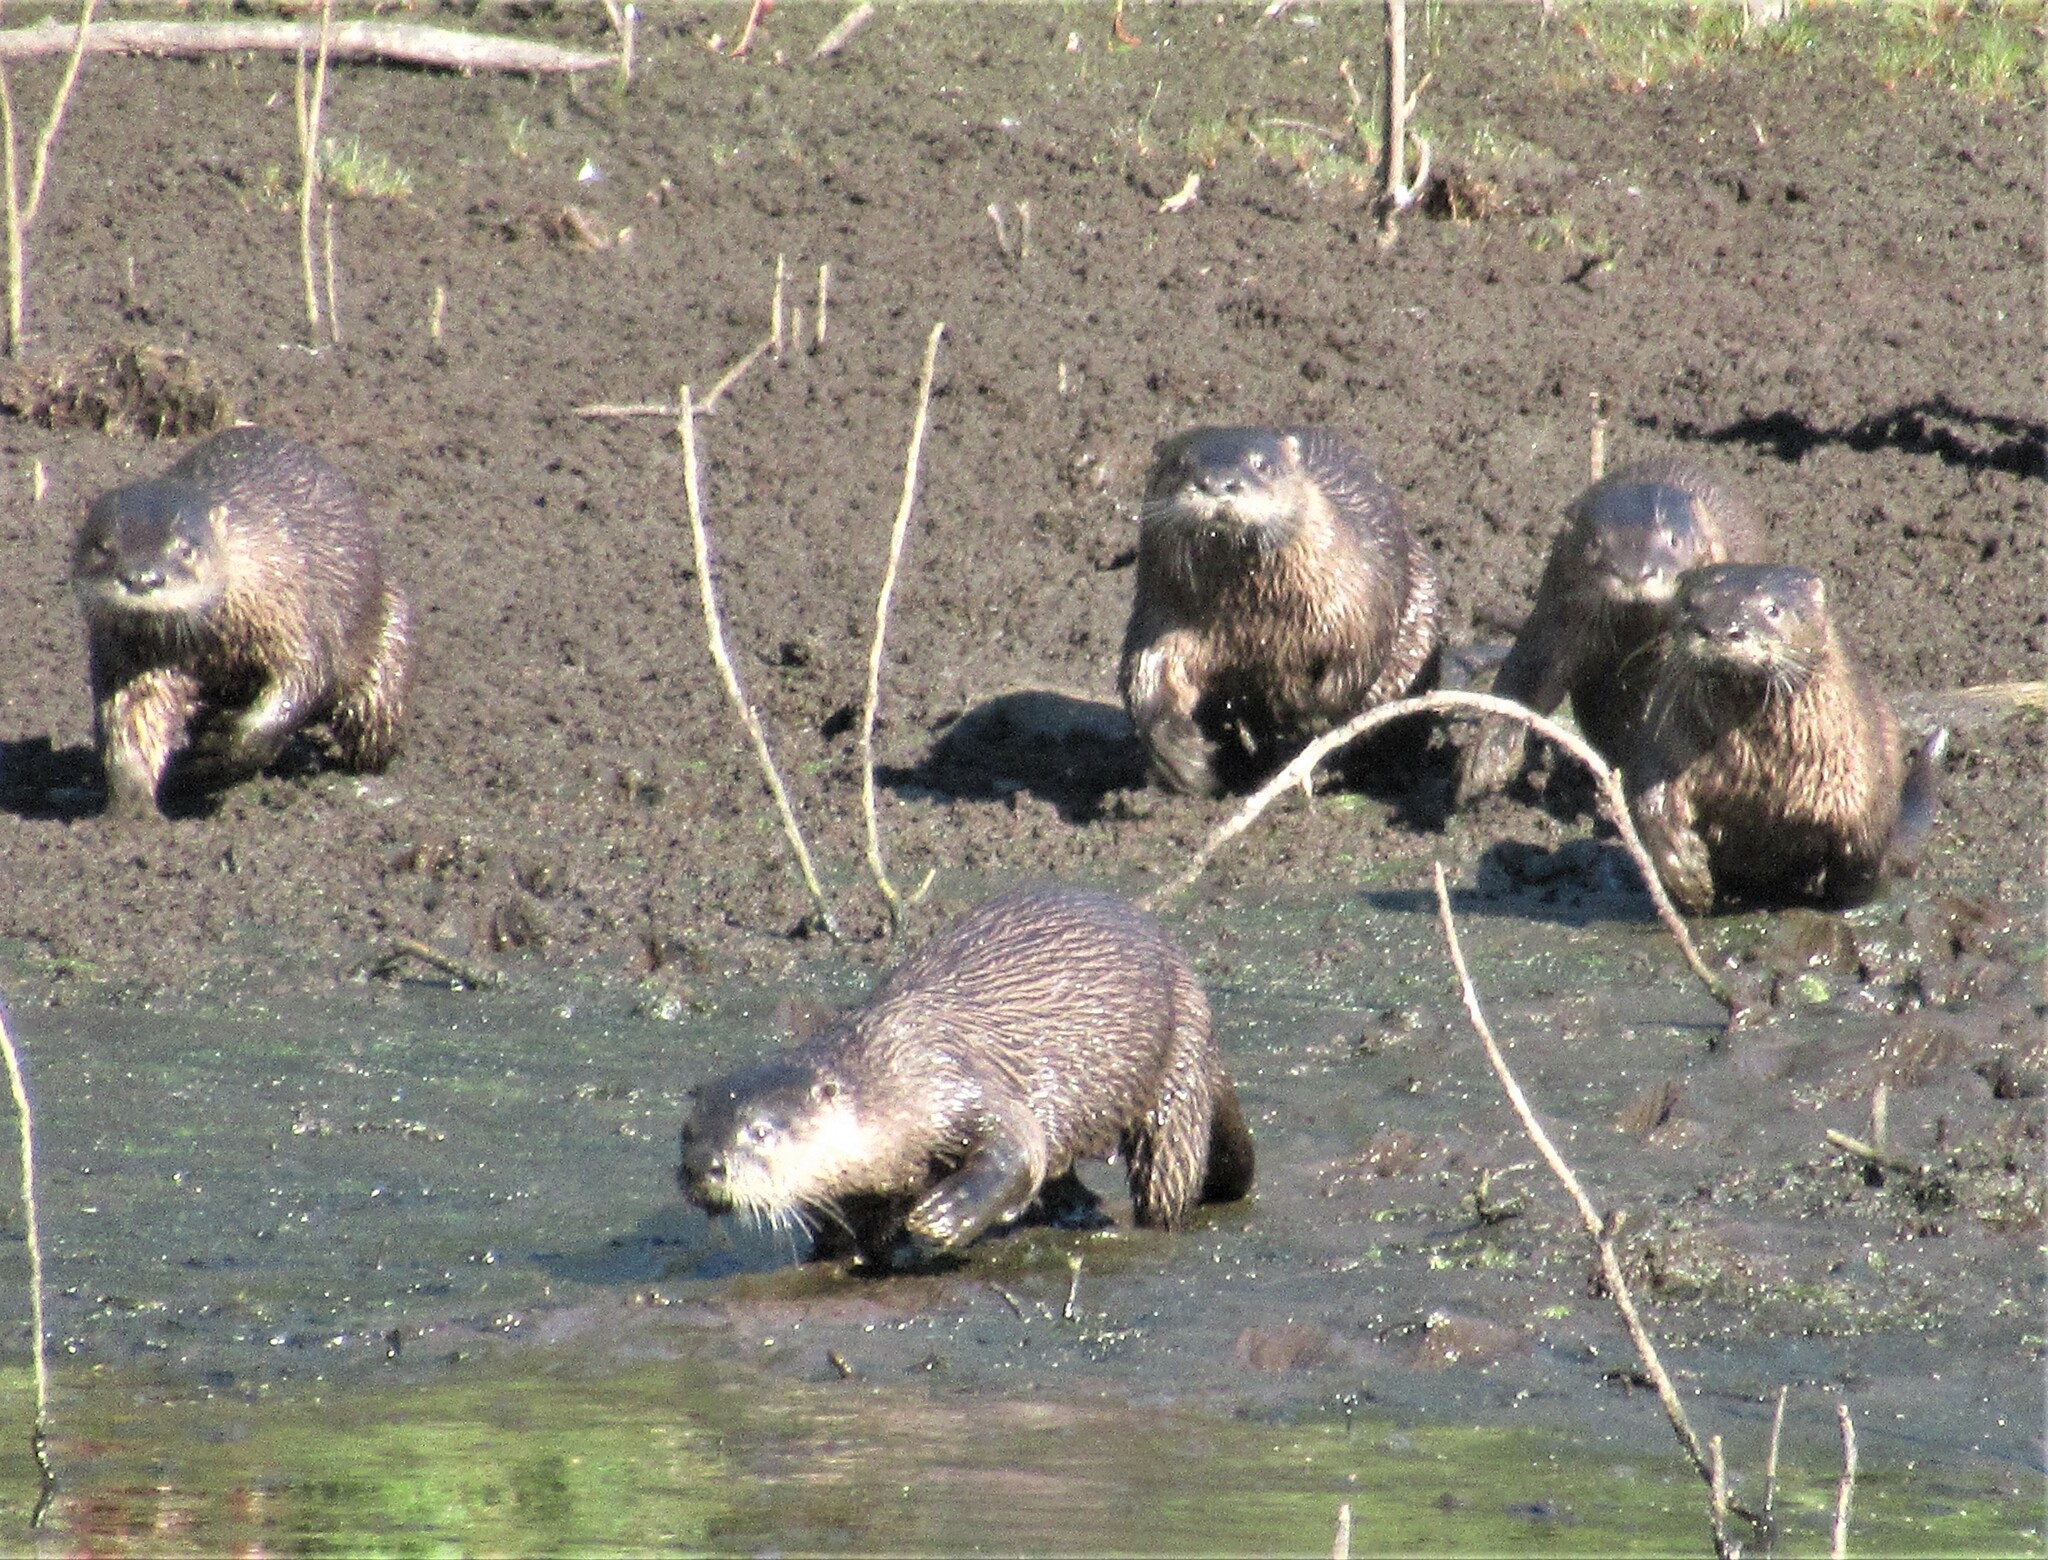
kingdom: Animalia
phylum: Chordata
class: Mammalia
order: Carnivora
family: Mustelidae
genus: Lontra
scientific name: Lontra canadensis
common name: North american river otter
